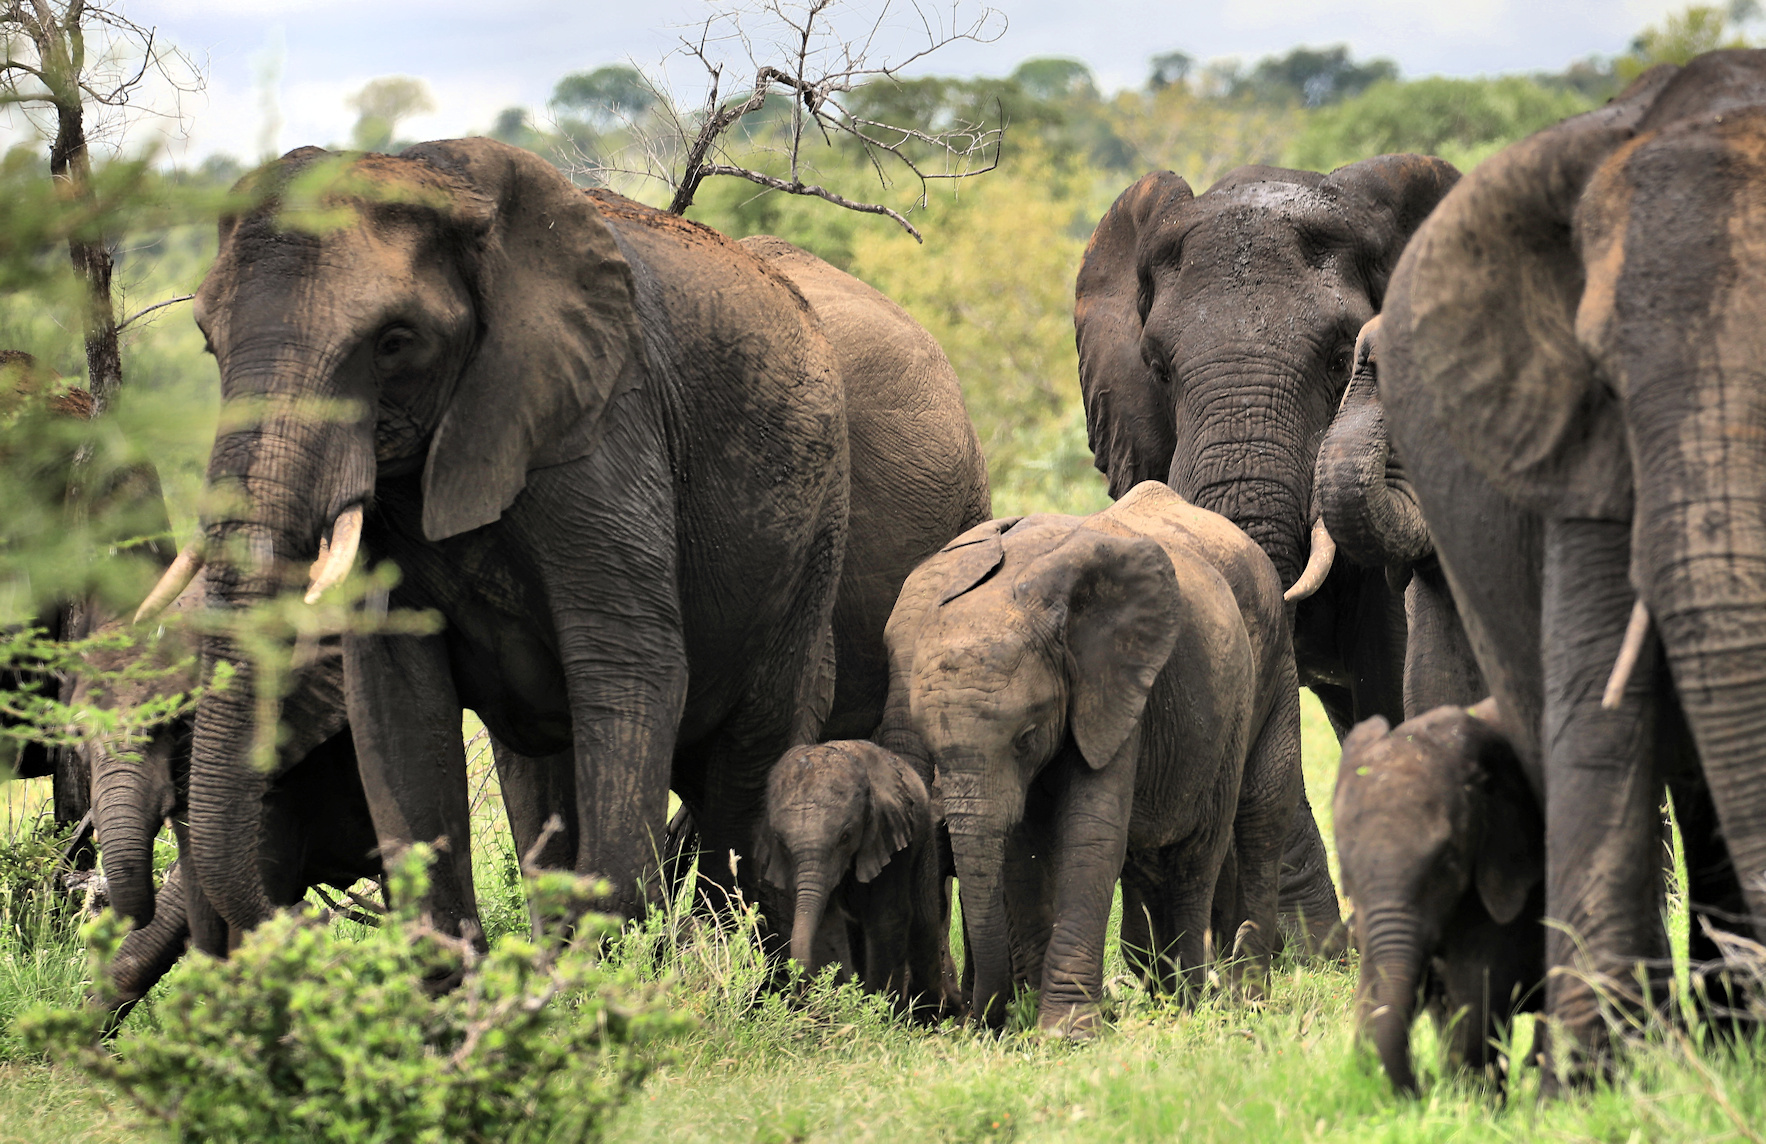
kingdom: Animalia
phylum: Chordata
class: Mammalia
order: Proboscidea
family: Elephantidae
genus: Loxodonta
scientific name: Loxodonta africana
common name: African elephant
